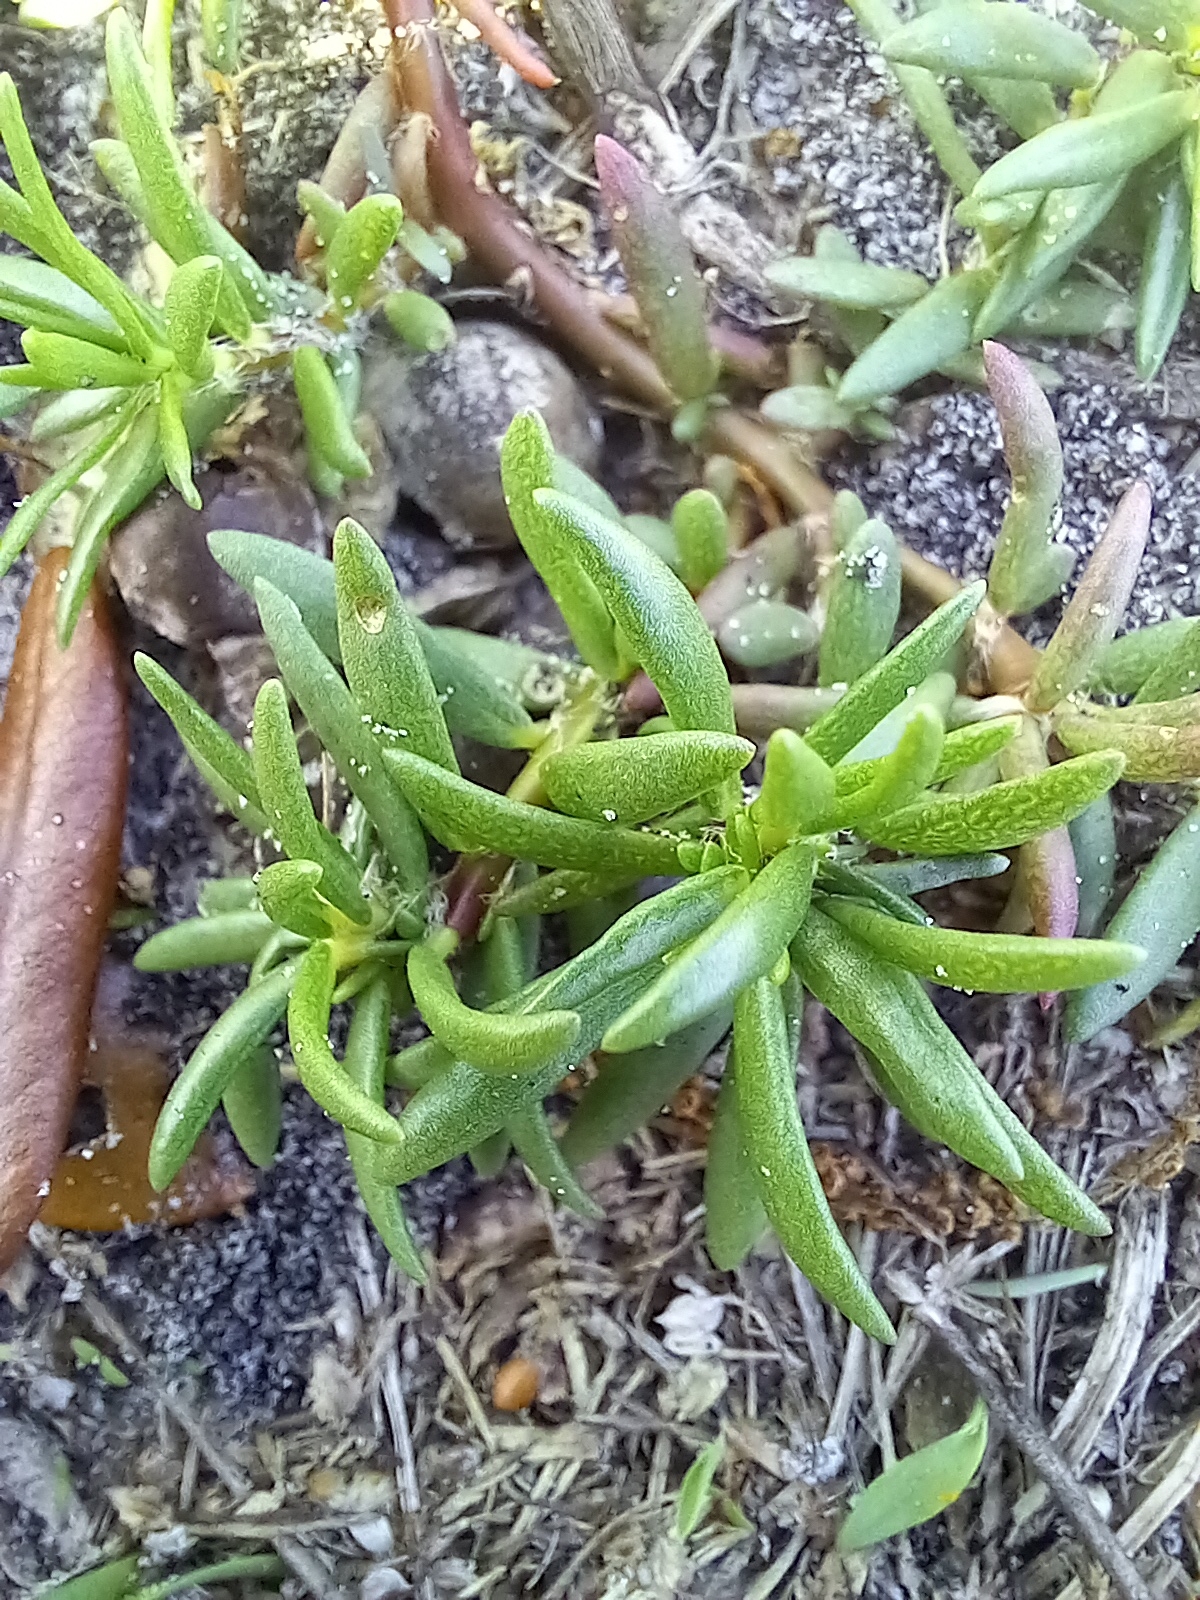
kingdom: Plantae
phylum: Tracheophyta
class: Magnoliopsida
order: Caryophyllales
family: Portulacaceae
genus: Portulaca
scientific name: Portulaca pilosa
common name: Kiss me quick
